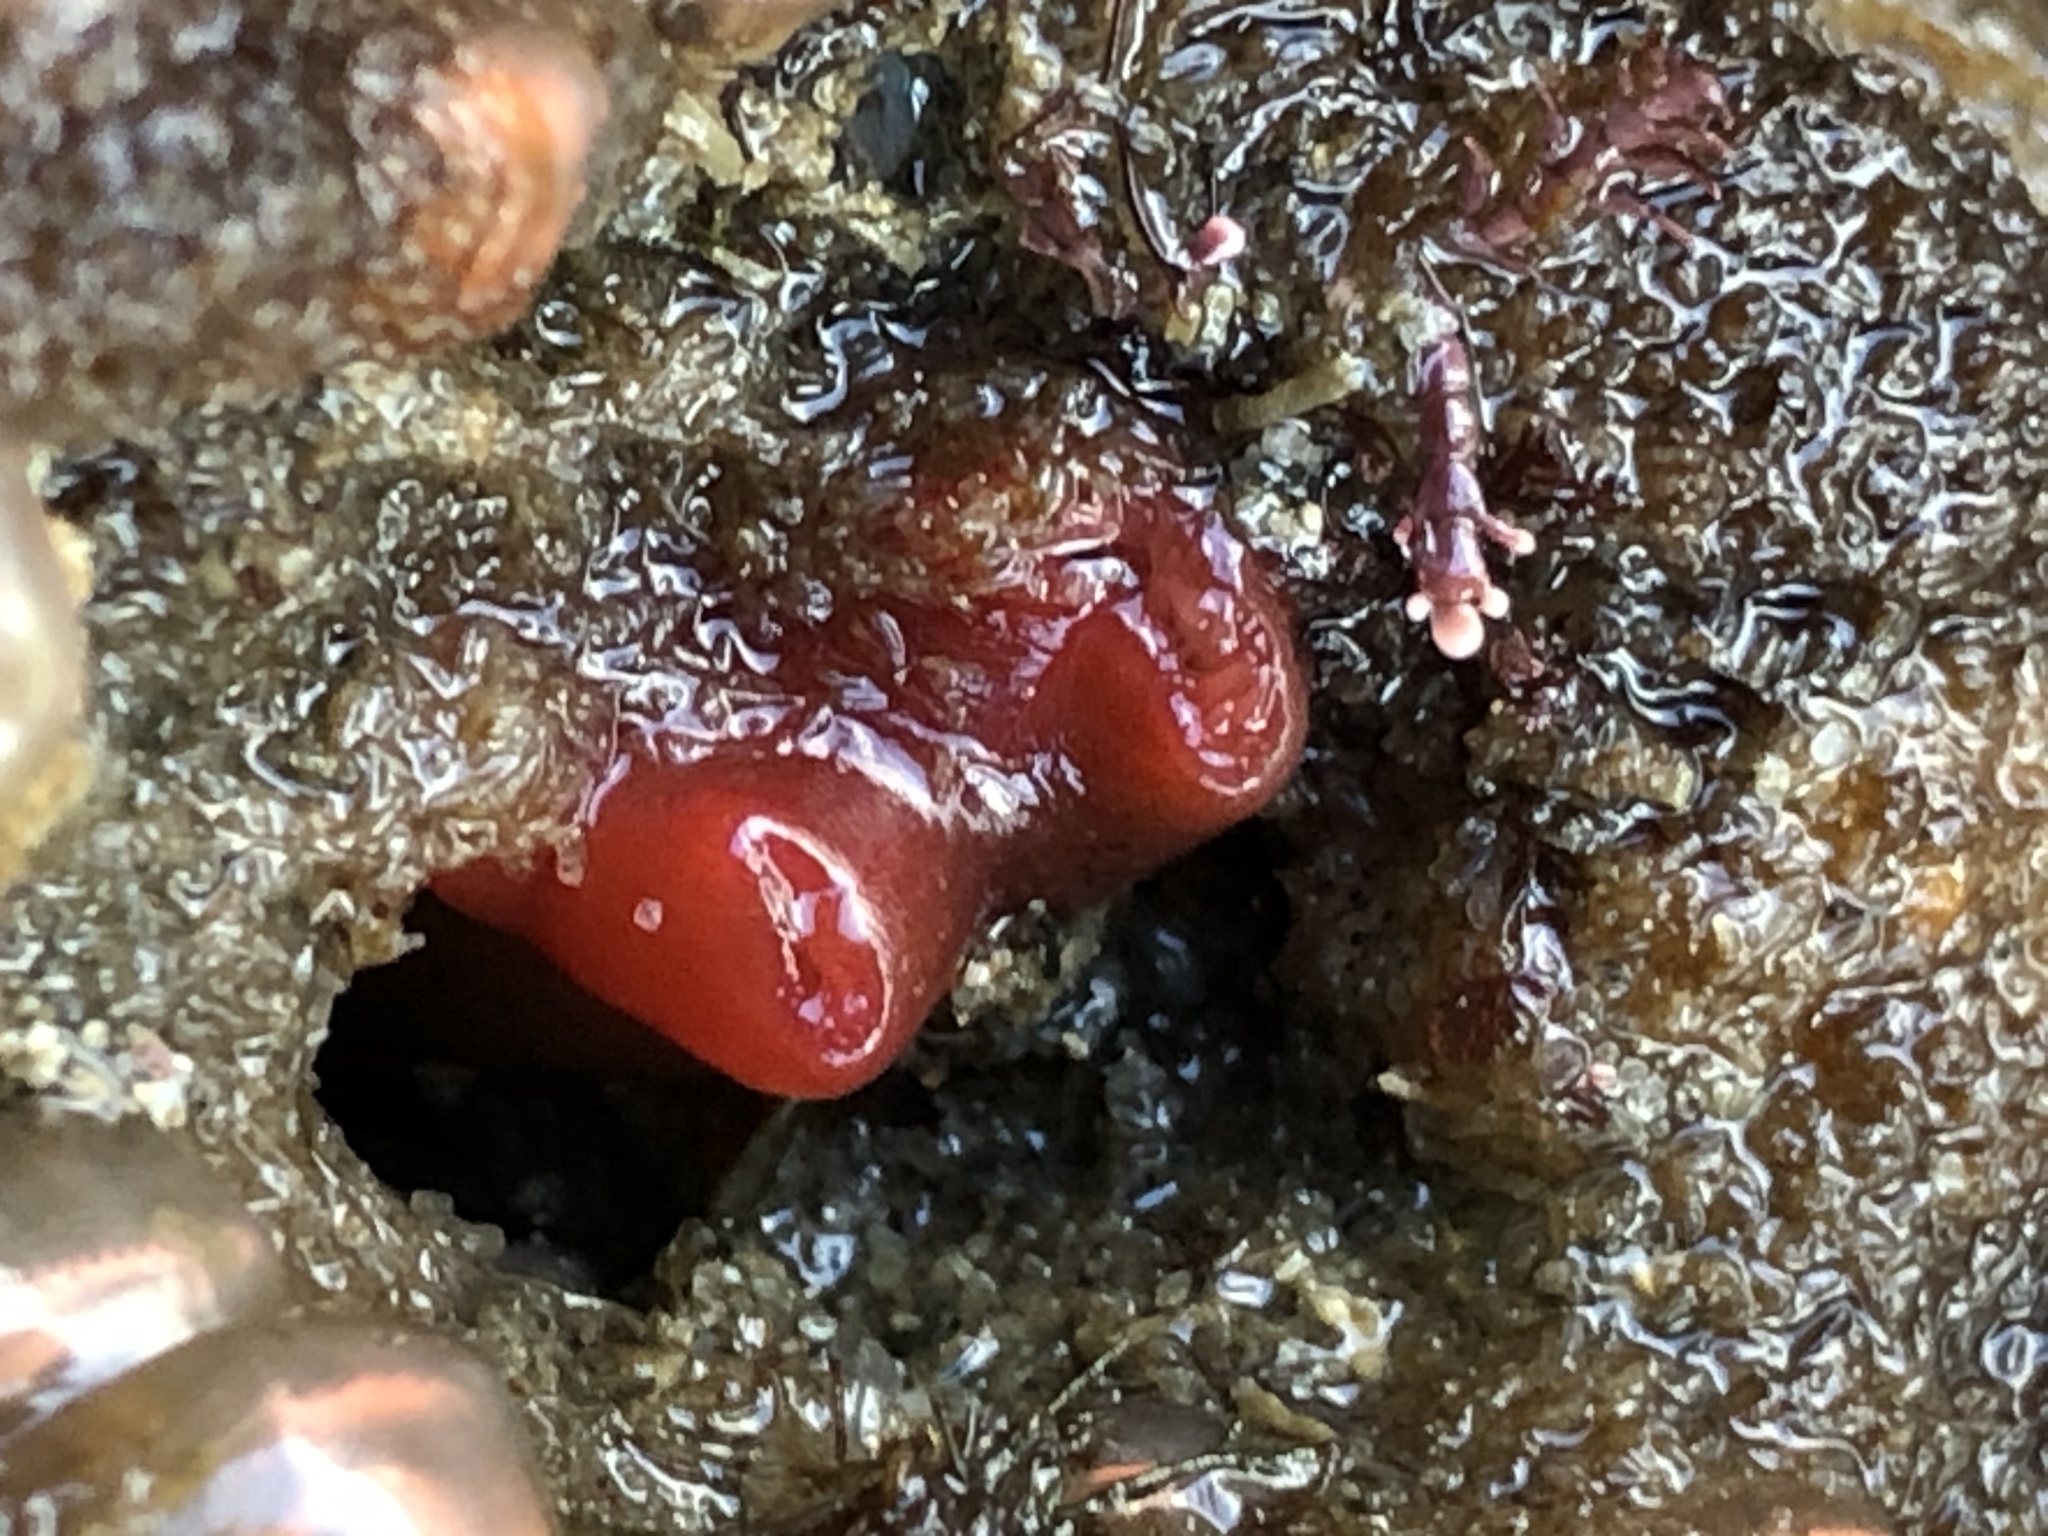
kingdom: Animalia
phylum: Mollusca
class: Bivalvia
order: Adapedonta
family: Hiatellidae
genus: Hiatella
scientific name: Hiatella arctica
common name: Arctic hiatella
